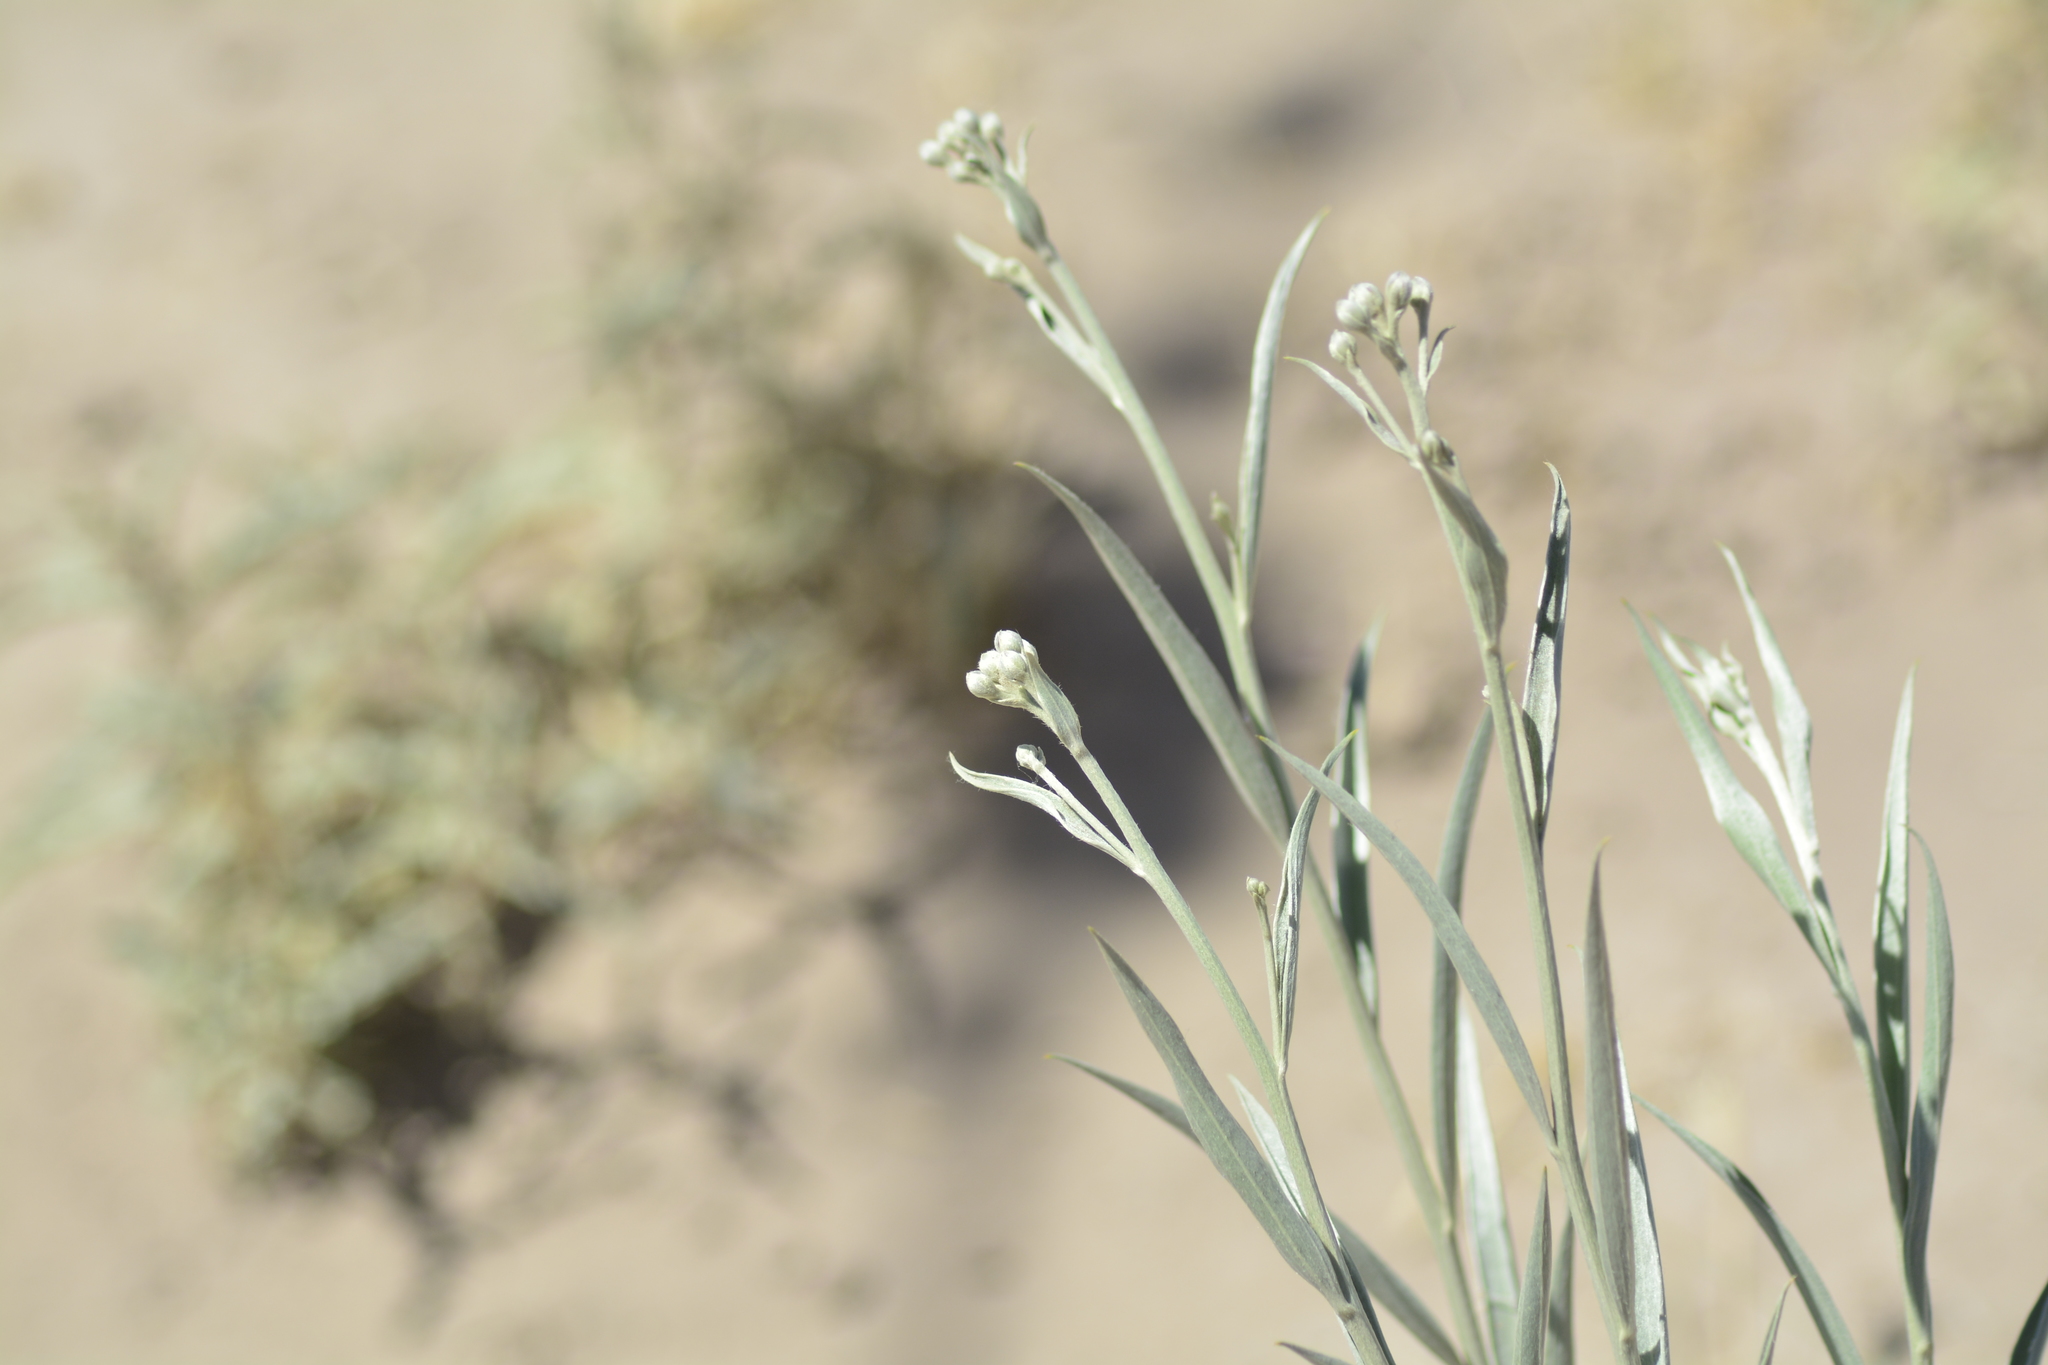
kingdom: Plantae
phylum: Tracheophyta
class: Magnoliopsida
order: Asterales
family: Asteraceae
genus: Hyalis
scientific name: Hyalis argentea
